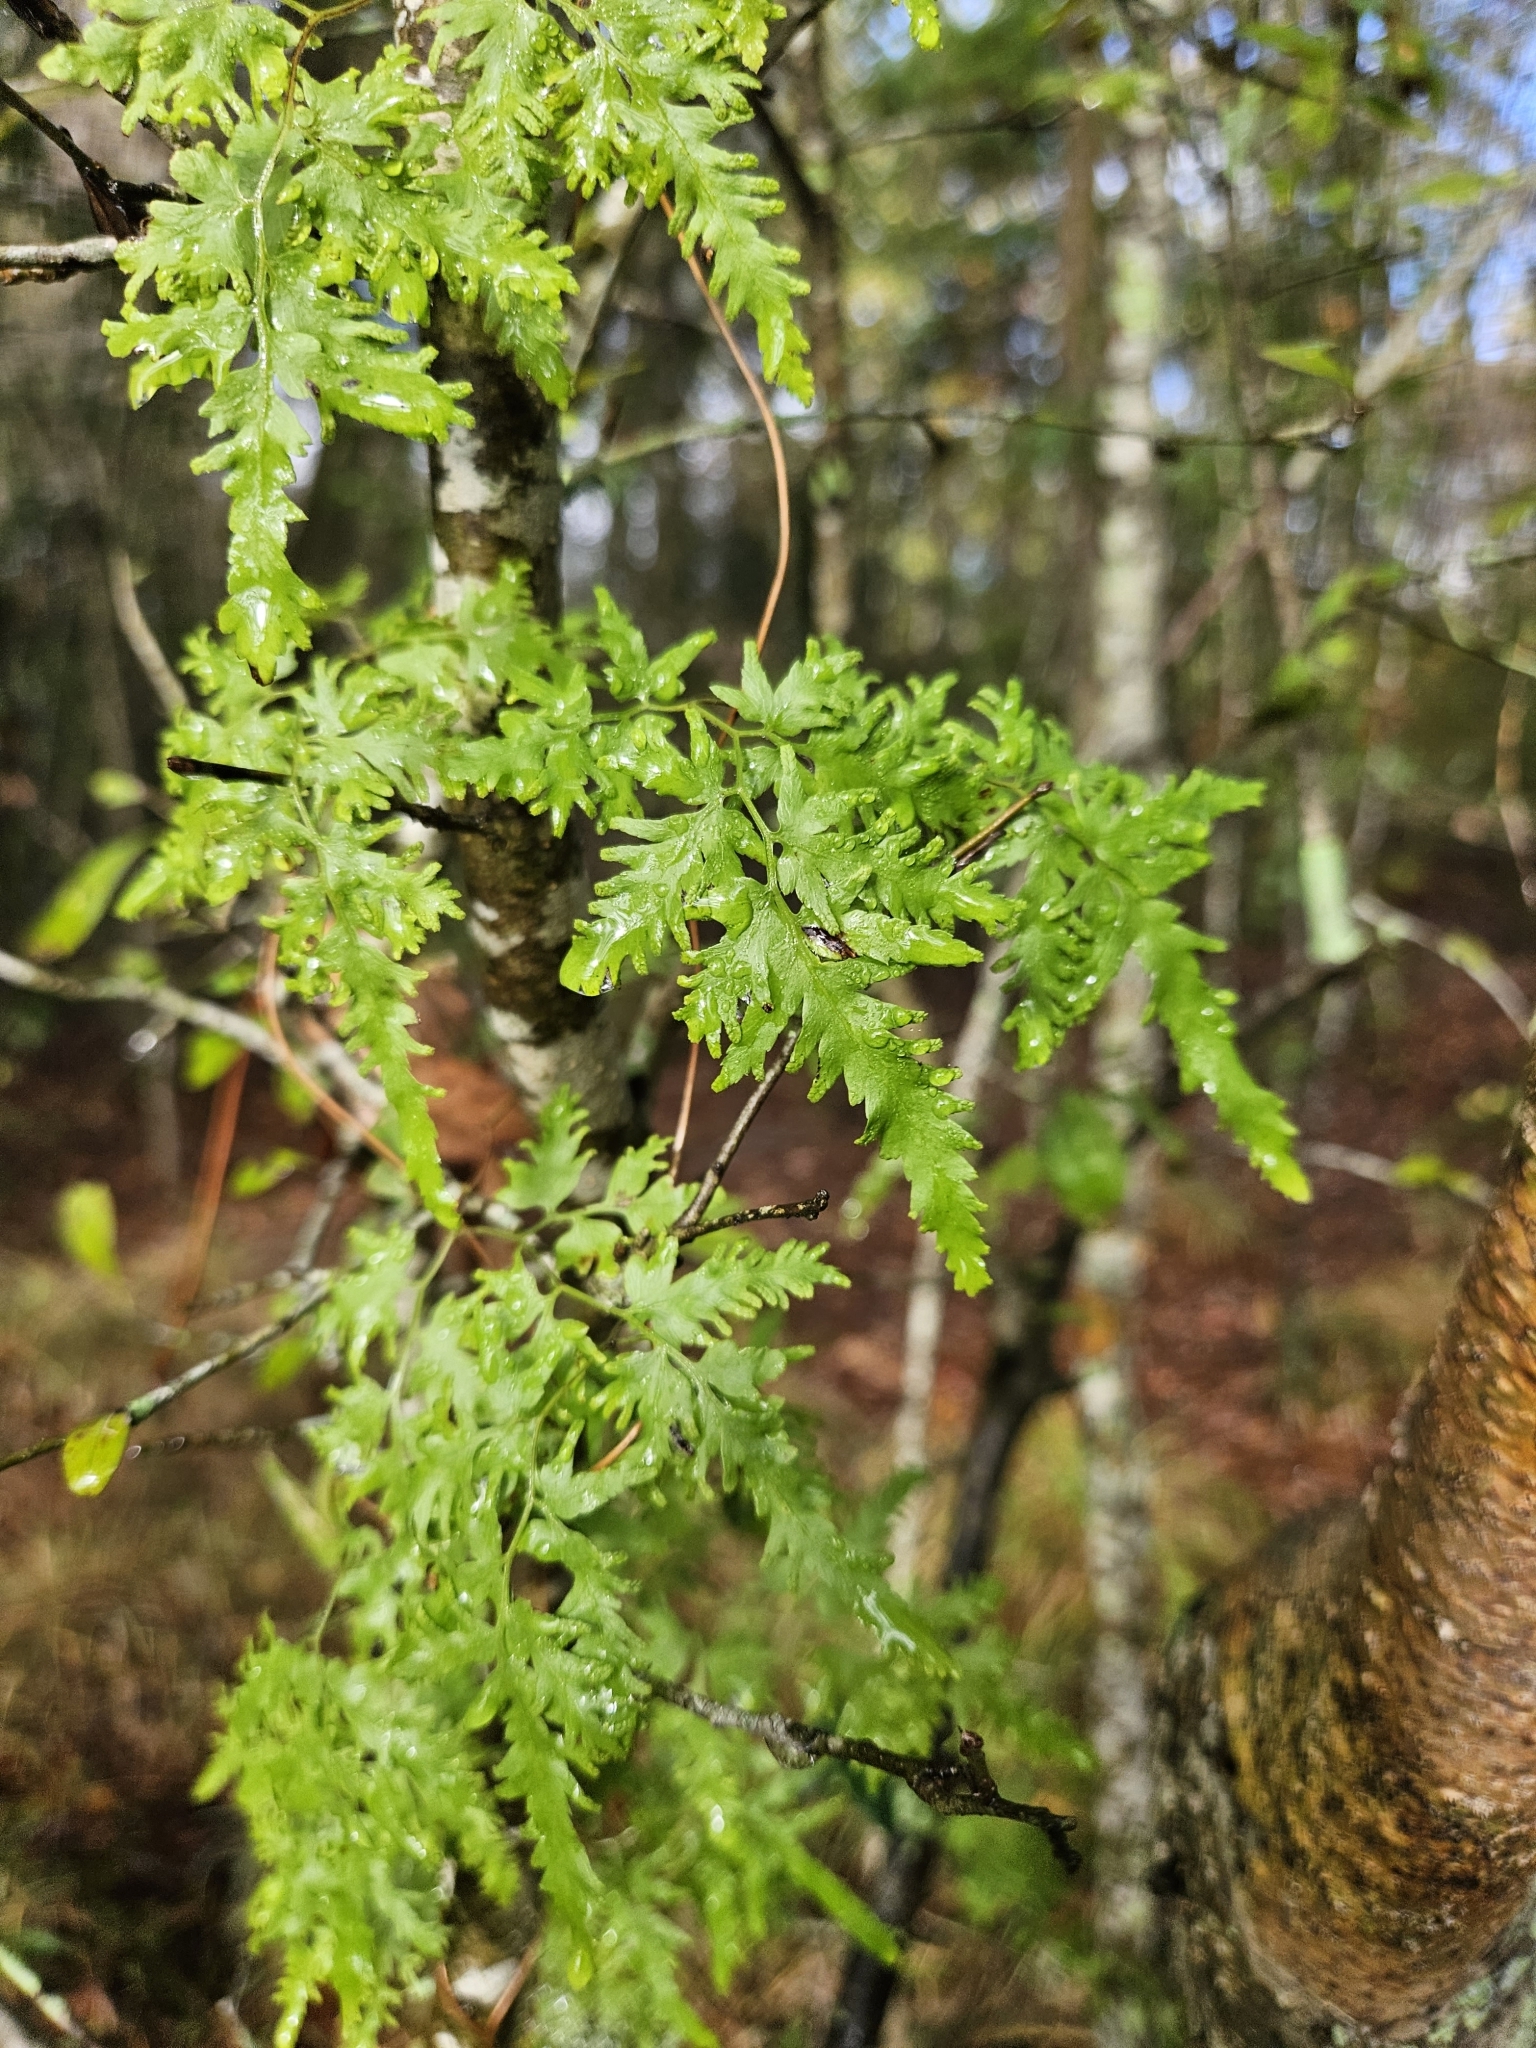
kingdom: Plantae
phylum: Tracheophyta
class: Polypodiopsida
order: Schizaeales
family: Lygodiaceae
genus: Lygodium
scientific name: Lygodium japonicum
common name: Japanese climbing fern
